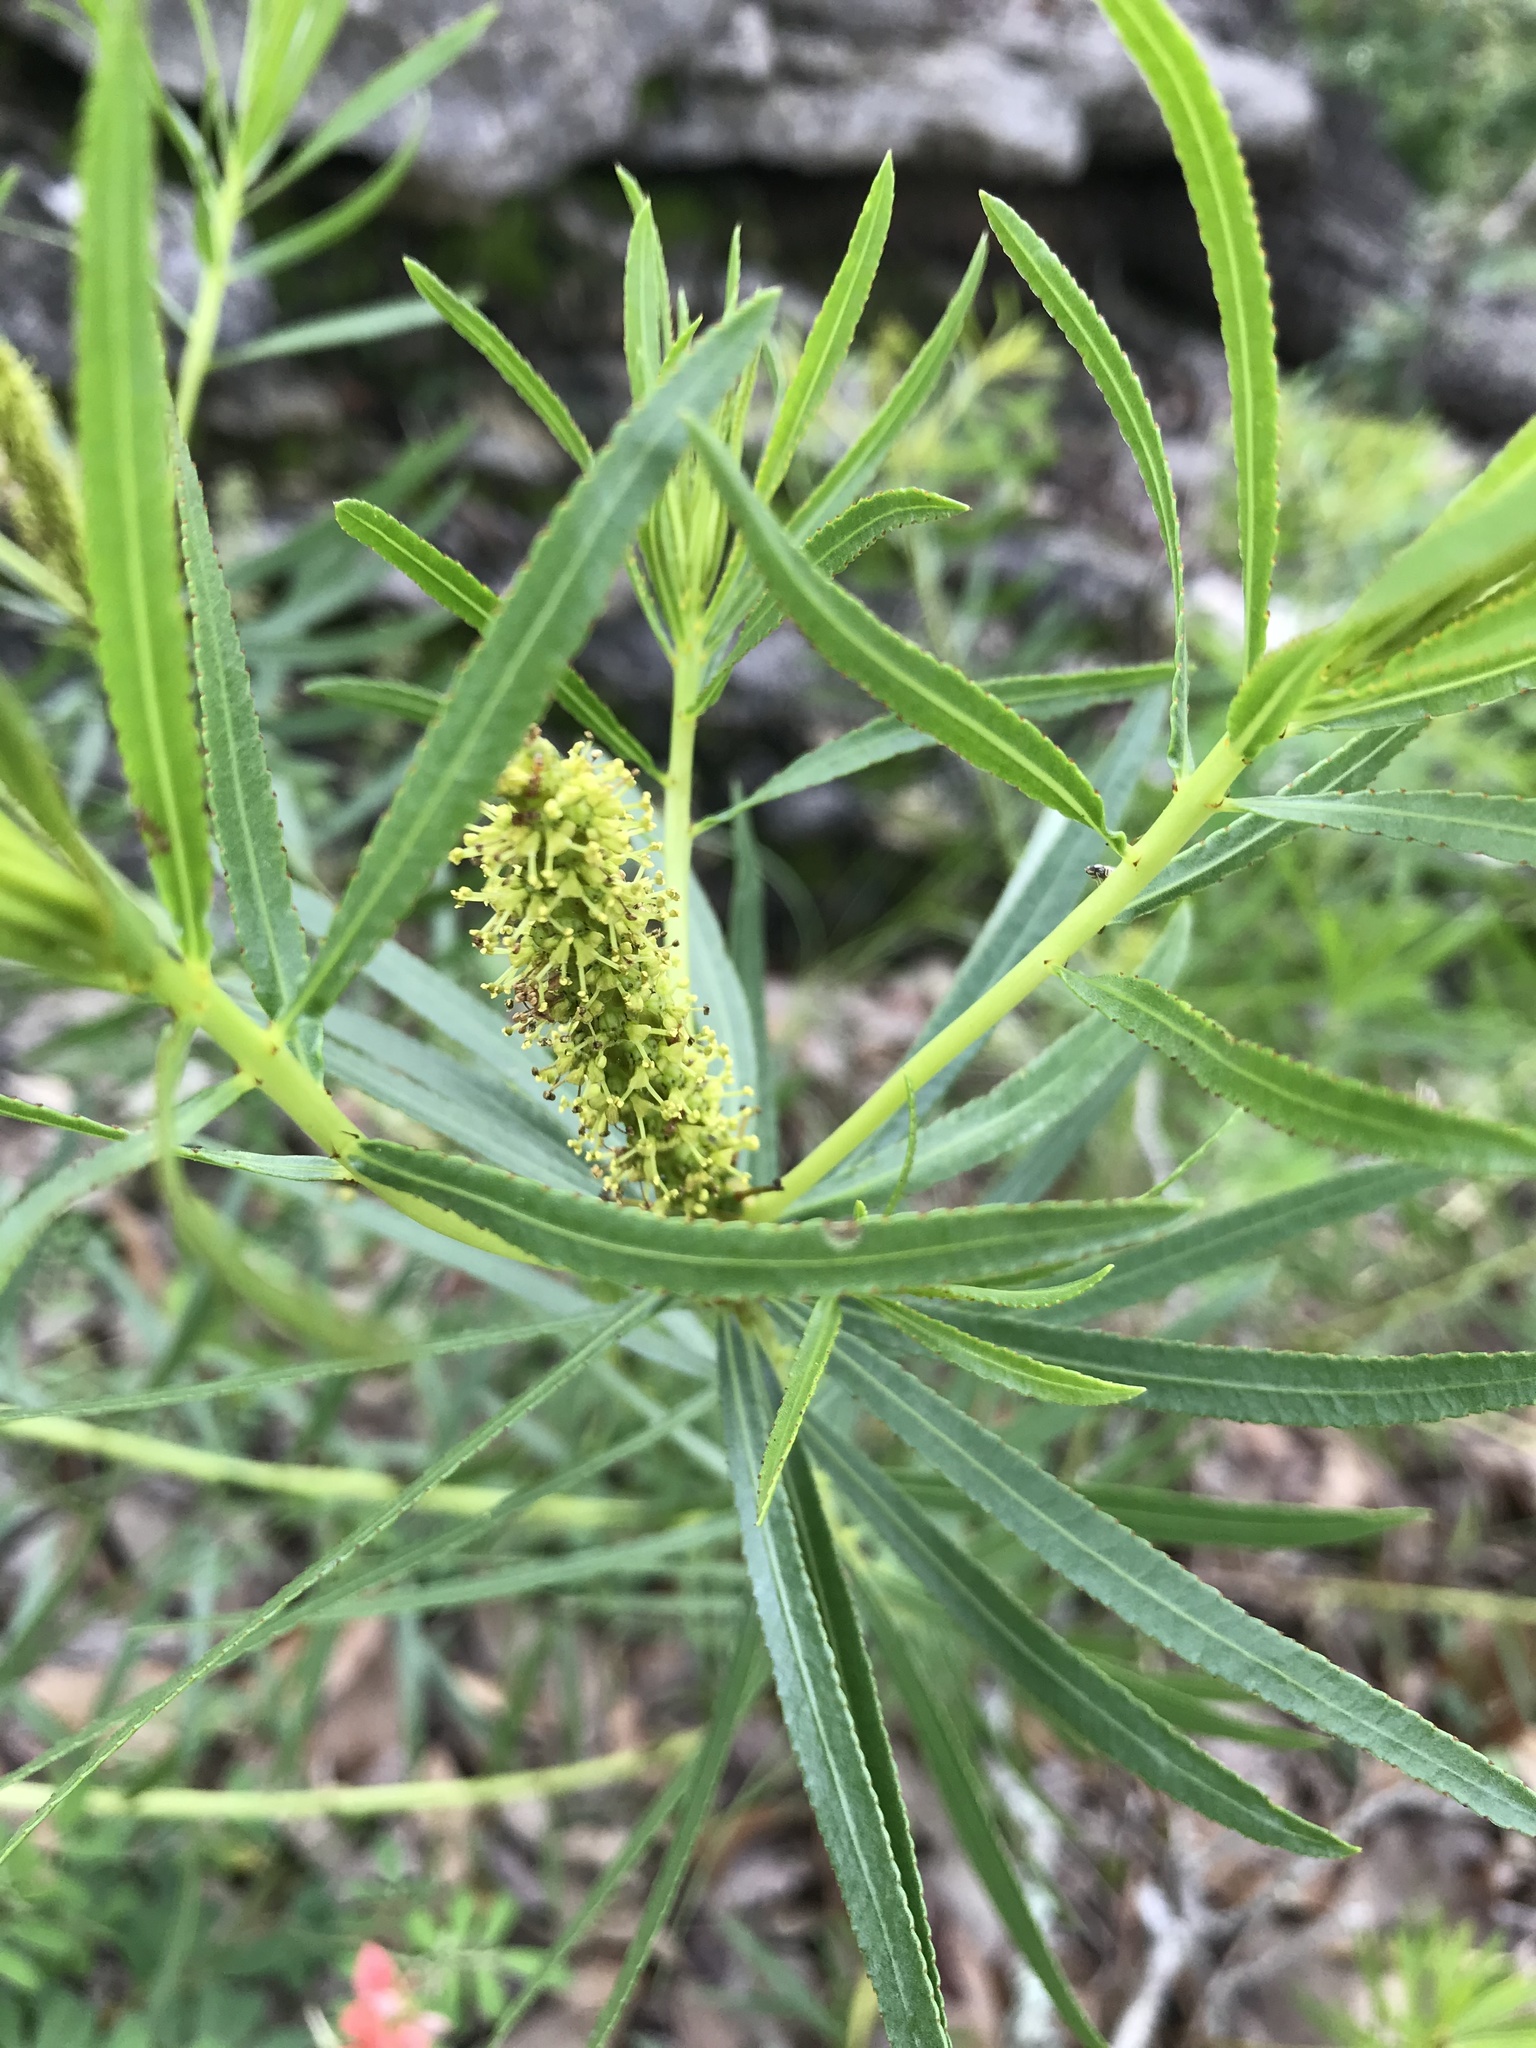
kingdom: Plantae
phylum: Tracheophyta
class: Magnoliopsida
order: Malpighiales
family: Euphorbiaceae
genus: Stillingia
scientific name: Stillingia texana
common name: Texas stillingia
